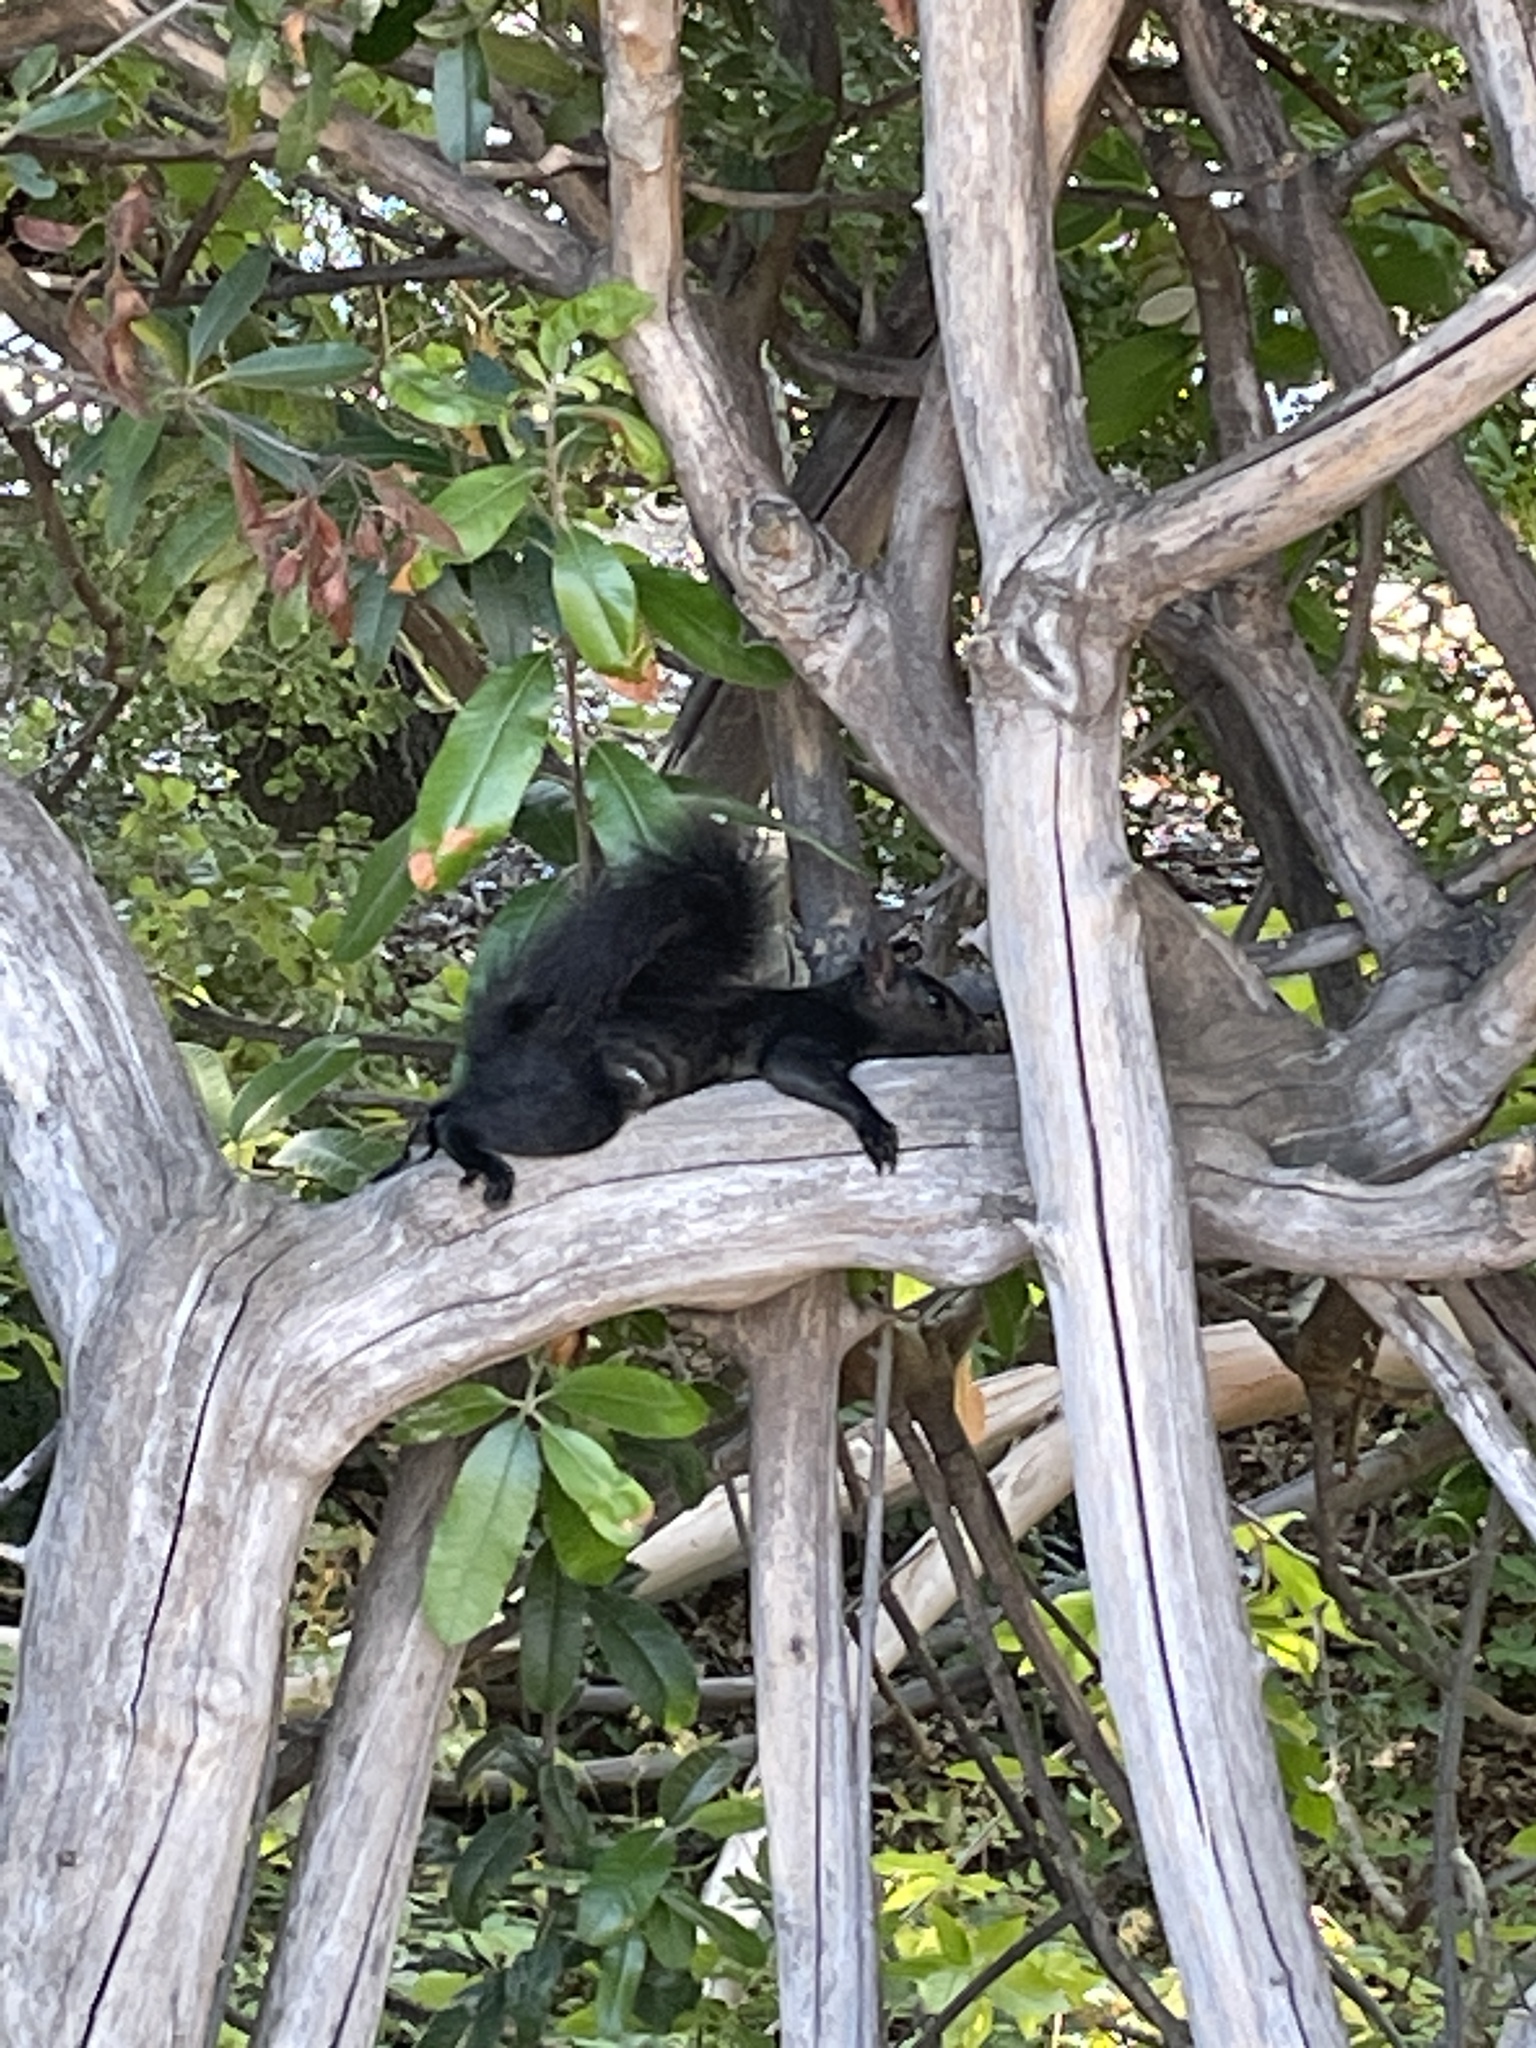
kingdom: Animalia
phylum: Chordata
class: Mammalia
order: Rodentia
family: Sciuridae
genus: Sciurus
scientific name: Sciurus carolinensis
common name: Eastern gray squirrel
